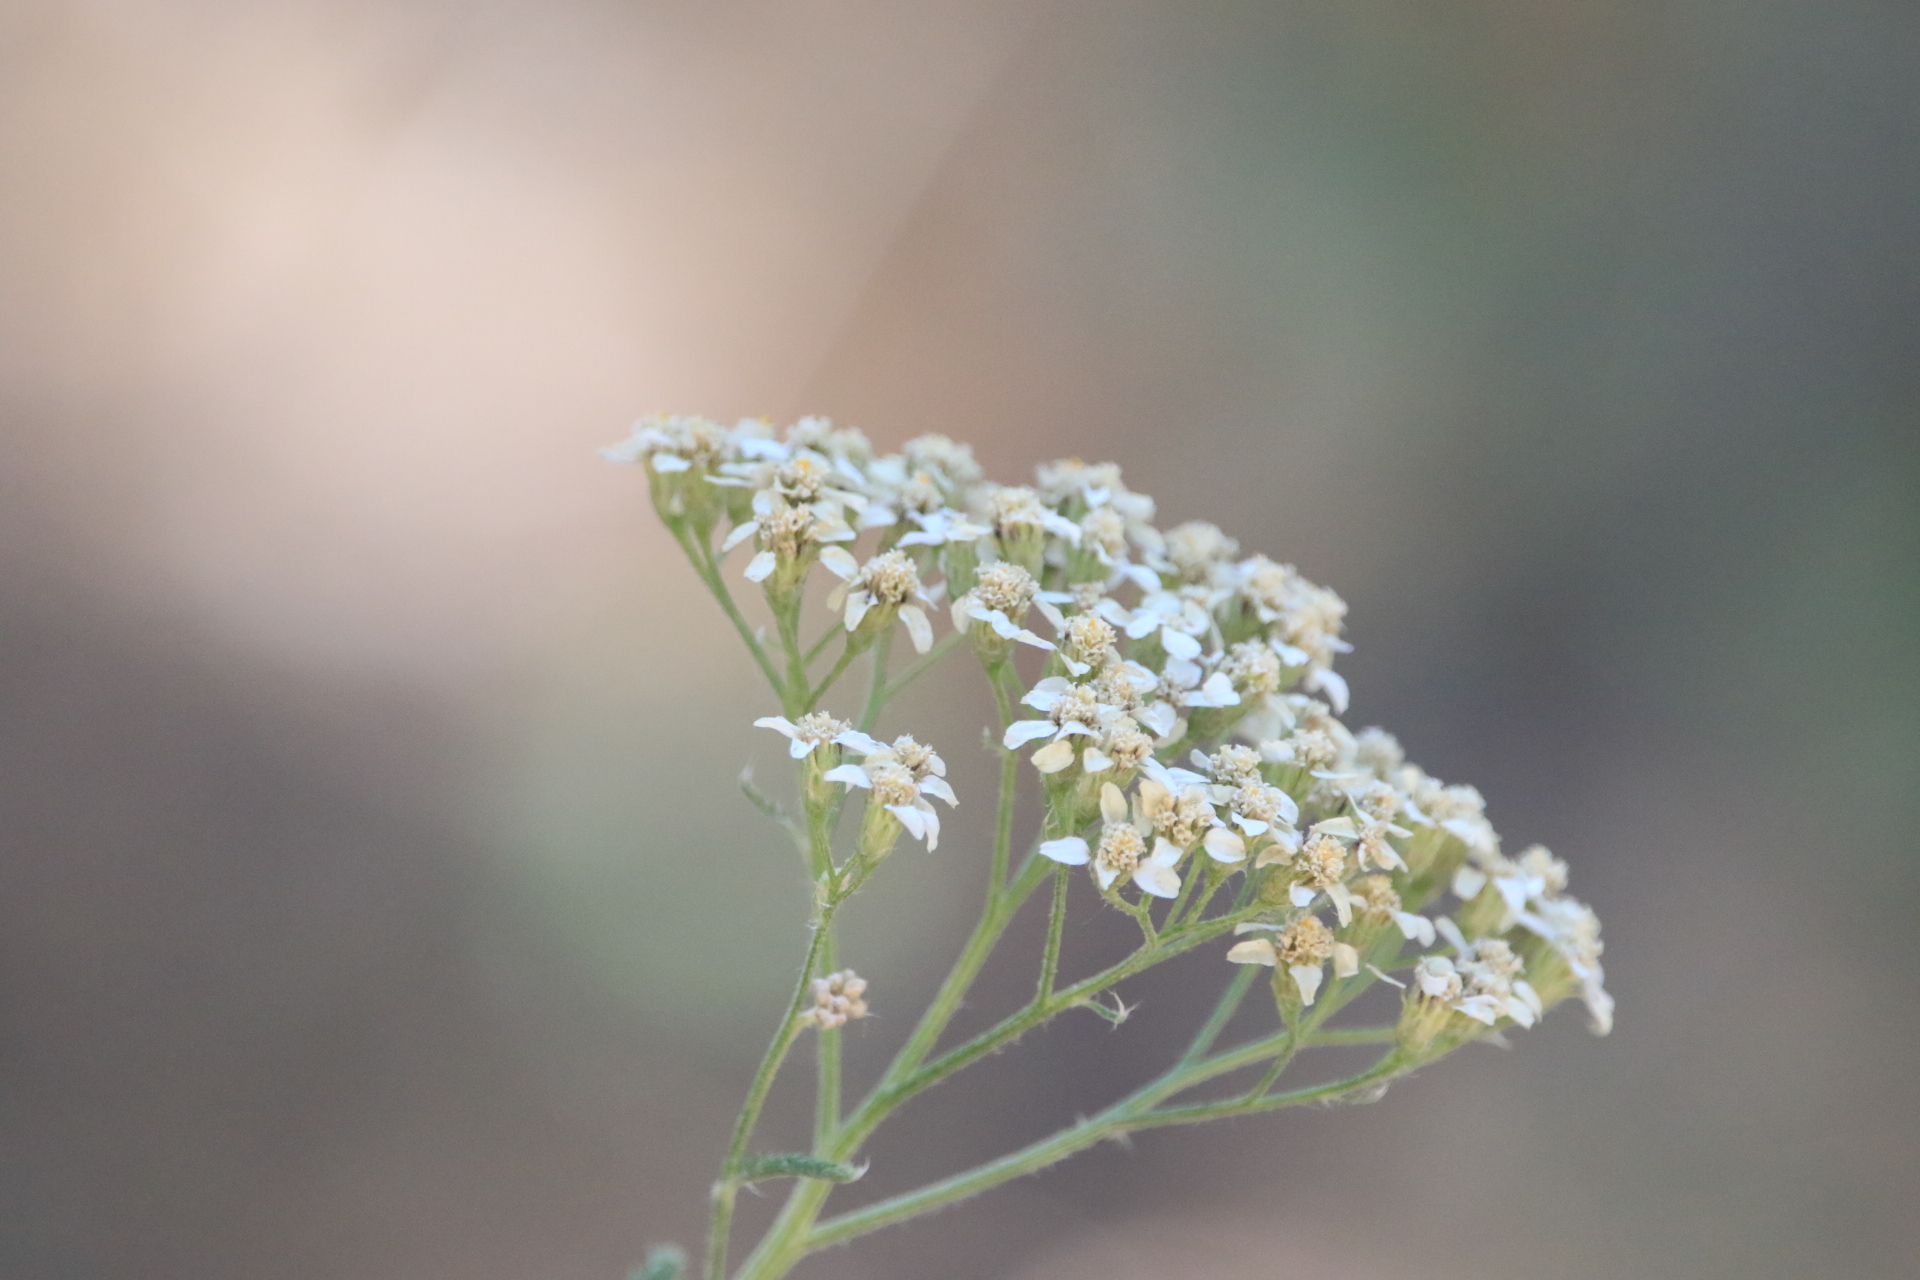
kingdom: Plantae
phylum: Tracheophyta
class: Magnoliopsida
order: Asterales
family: Asteraceae
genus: Achillea
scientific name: Achillea millefolium
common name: Yarrow
